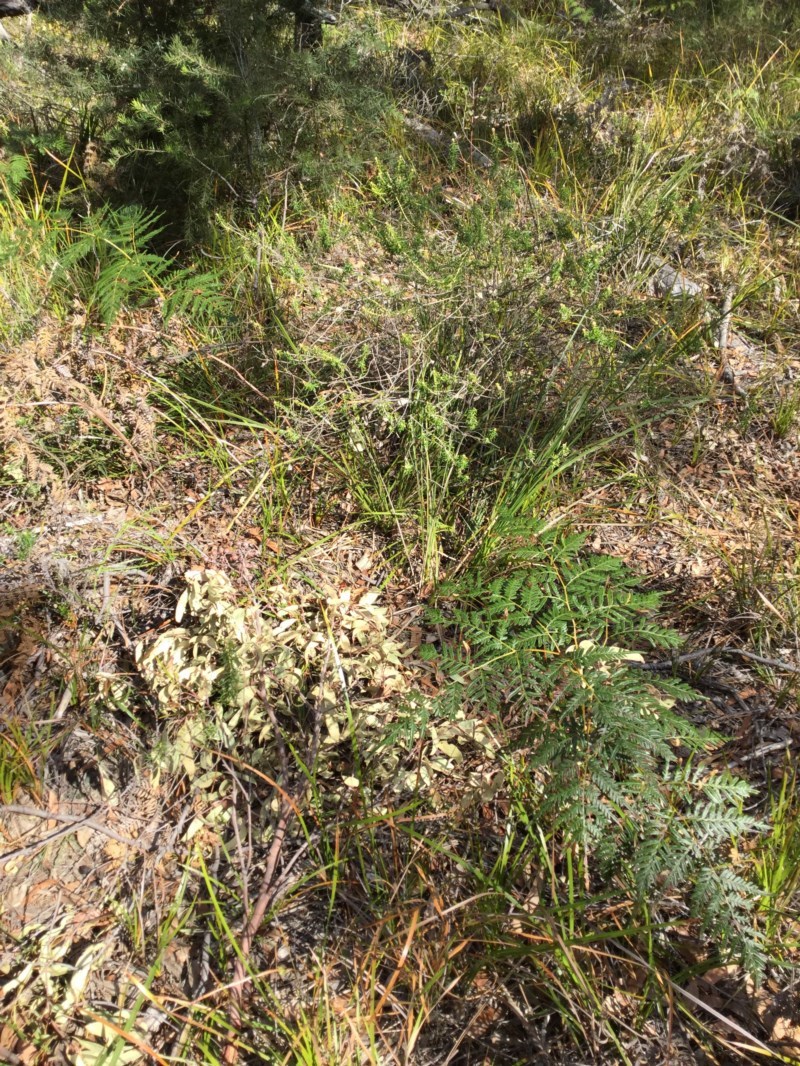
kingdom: Plantae
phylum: Tracheophyta
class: Magnoliopsida
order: Apiales
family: Araliaceae
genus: Astrotricha
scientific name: Astrotricha
